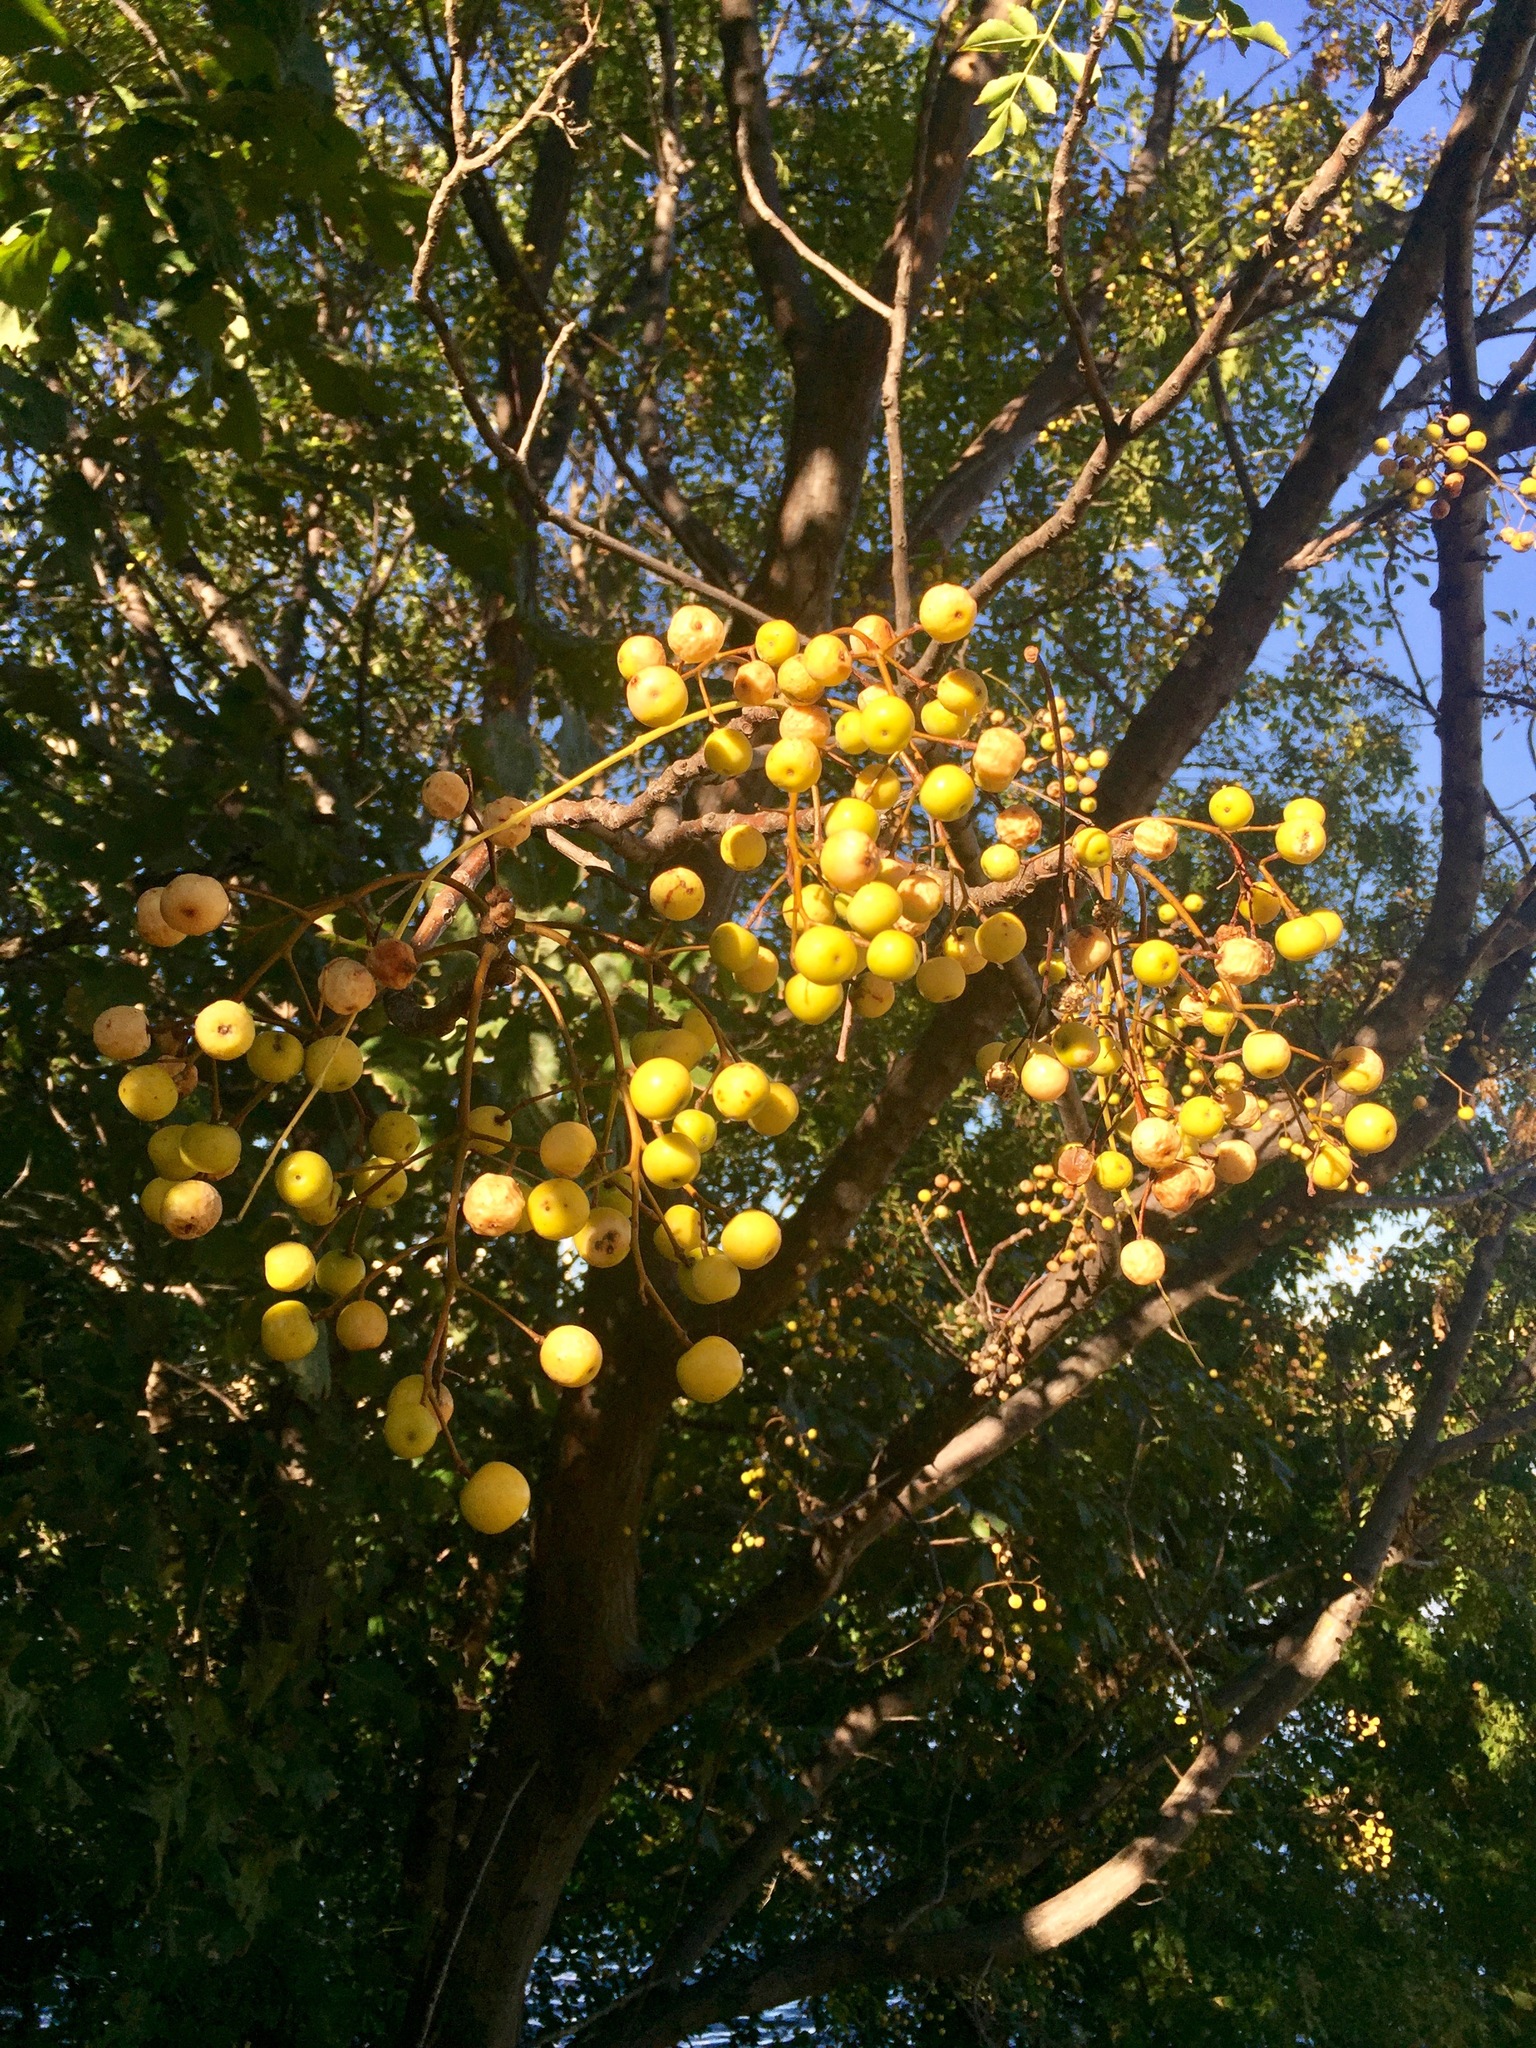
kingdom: Plantae
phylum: Tracheophyta
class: Magnoliopsida
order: Sapindales
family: Meliaceae
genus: Melia
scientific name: Melia azedarach
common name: Chinaberrytree
